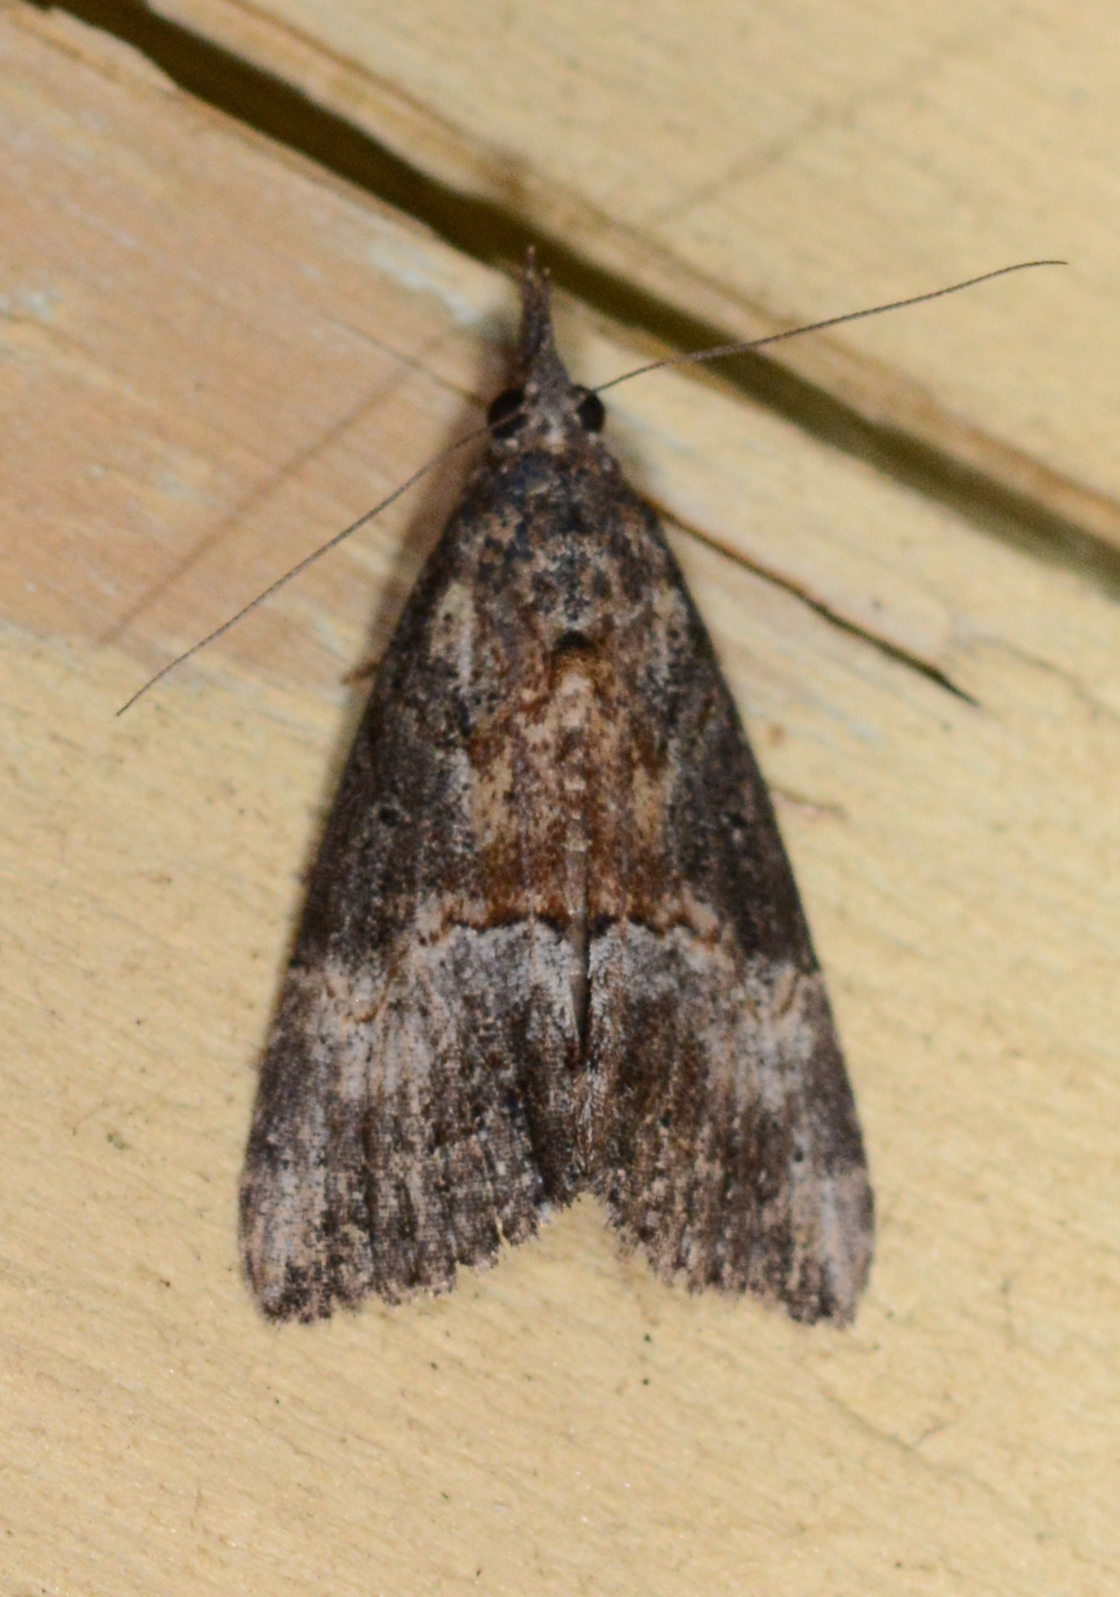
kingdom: Animalia
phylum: Arthropoda
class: Insecta
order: Lepidoptera
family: Erebidae
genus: Hypena
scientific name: Hypena scabra
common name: Green cloverworm
